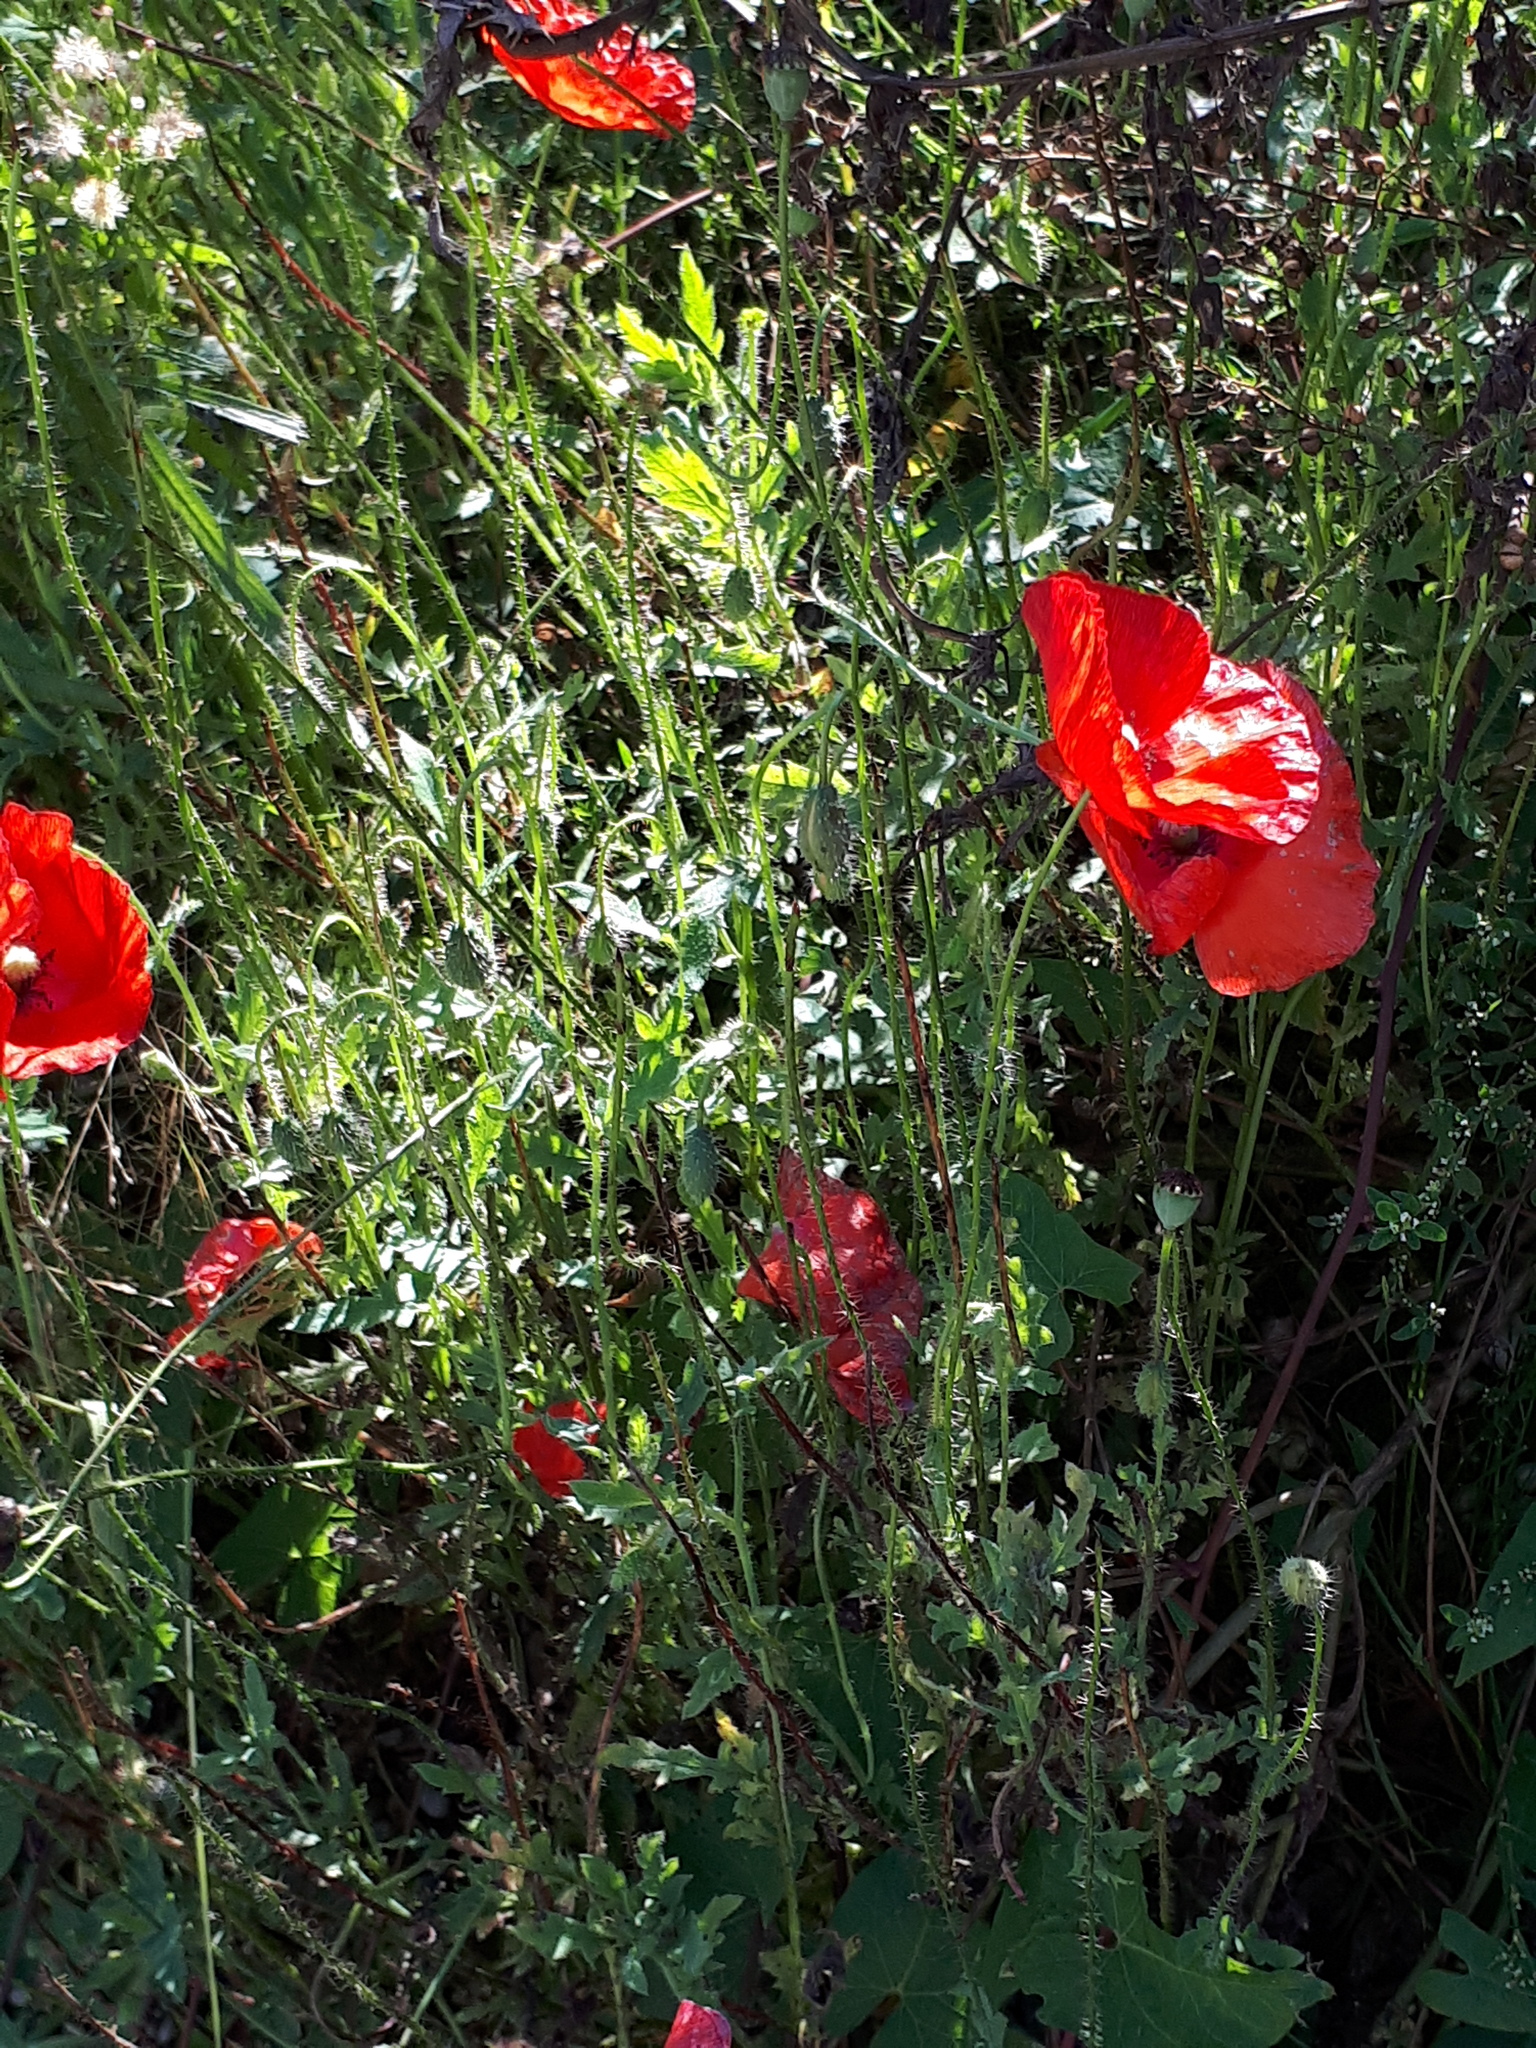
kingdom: Plantae
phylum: Tracheophyta
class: Magnoliopsida
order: Ranunculales
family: Papaveraceae
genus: Papaver
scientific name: Papaver rhoeas
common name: Corn poppy
